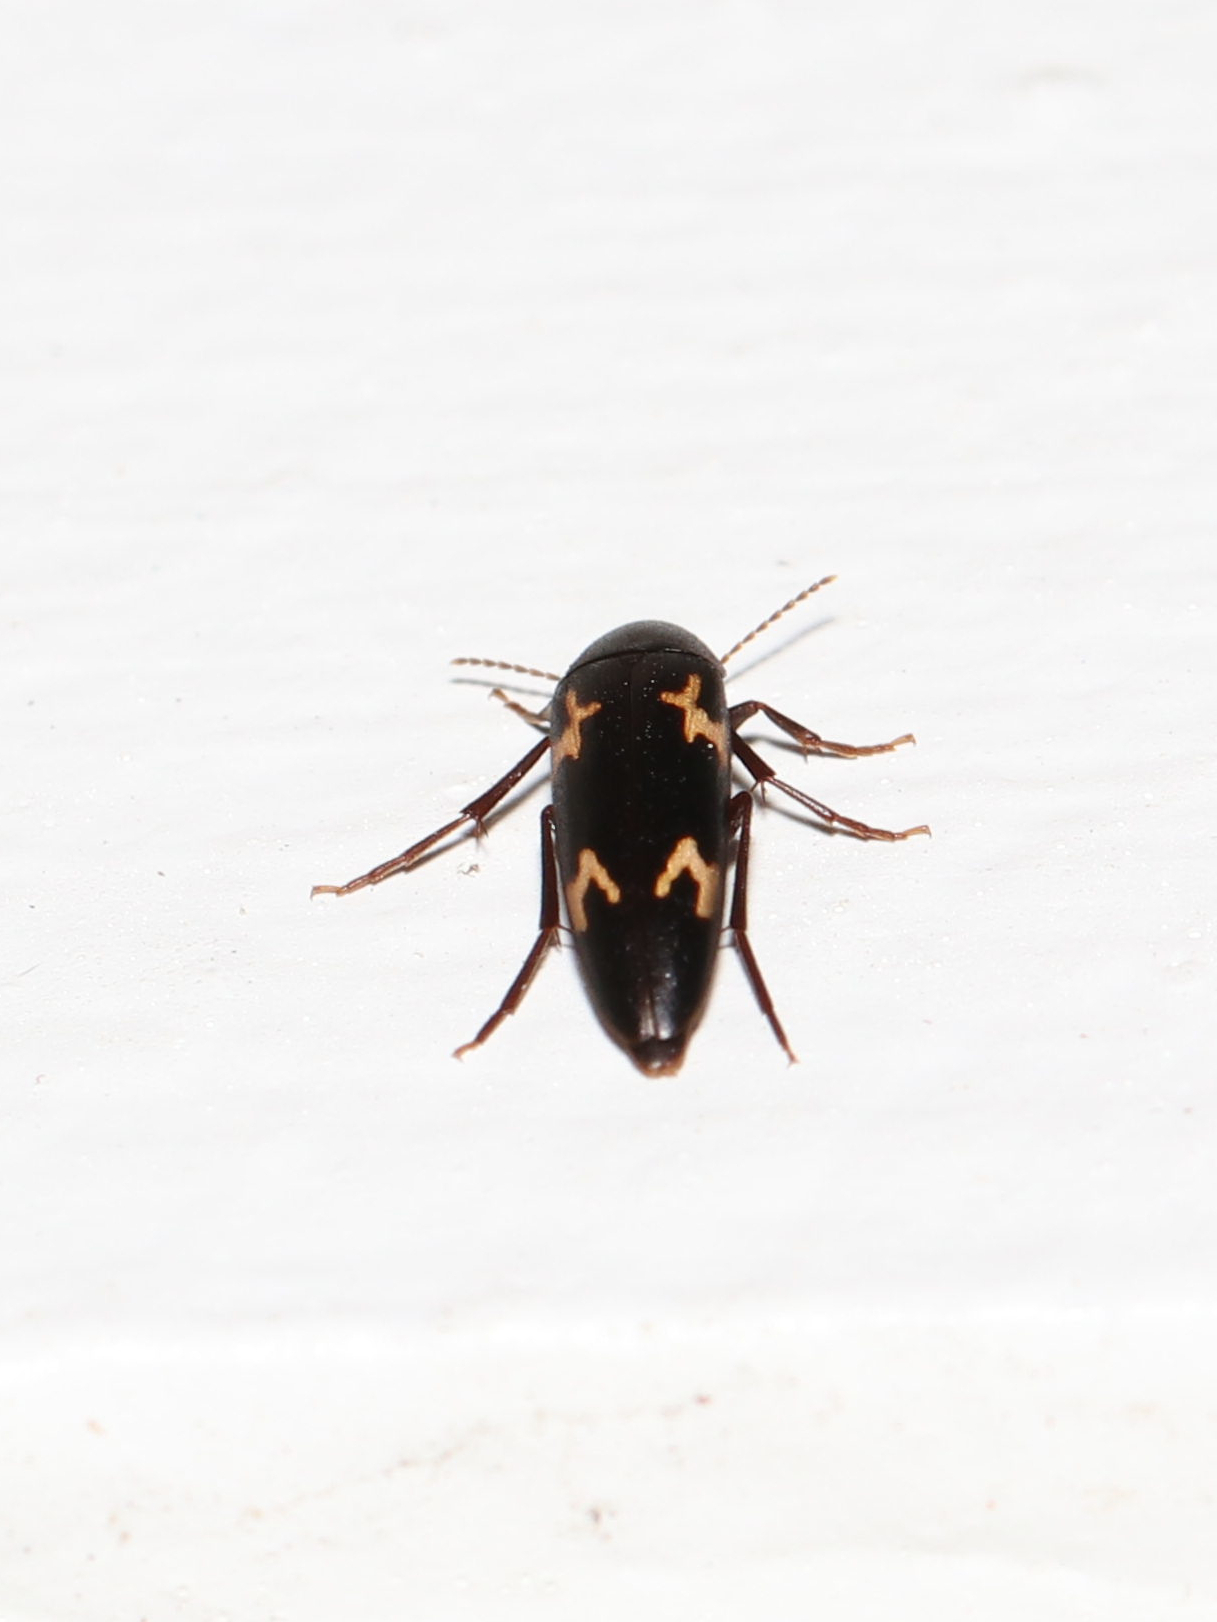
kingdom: Animalia
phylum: Arthropoda
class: Insecta
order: Coleoptera
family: Melandryidae
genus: Dircaea
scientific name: Dircaea liturata
